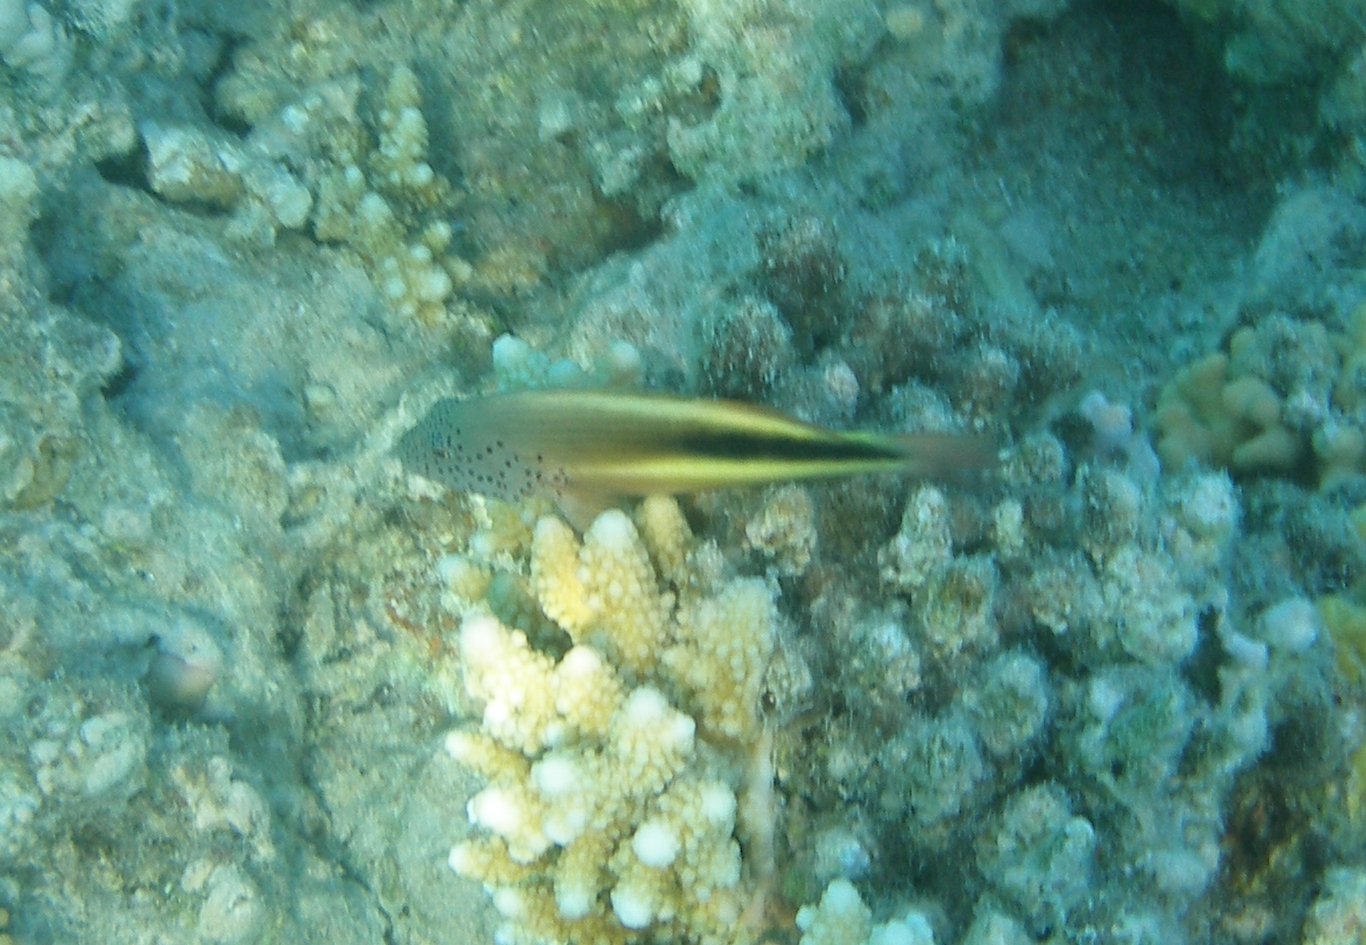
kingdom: Animalia
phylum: Chordata
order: Perciformes
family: Cirrhitidae
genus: Paracirrhites
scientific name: Paracirrhites forsteri
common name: Freckled hawkfish
